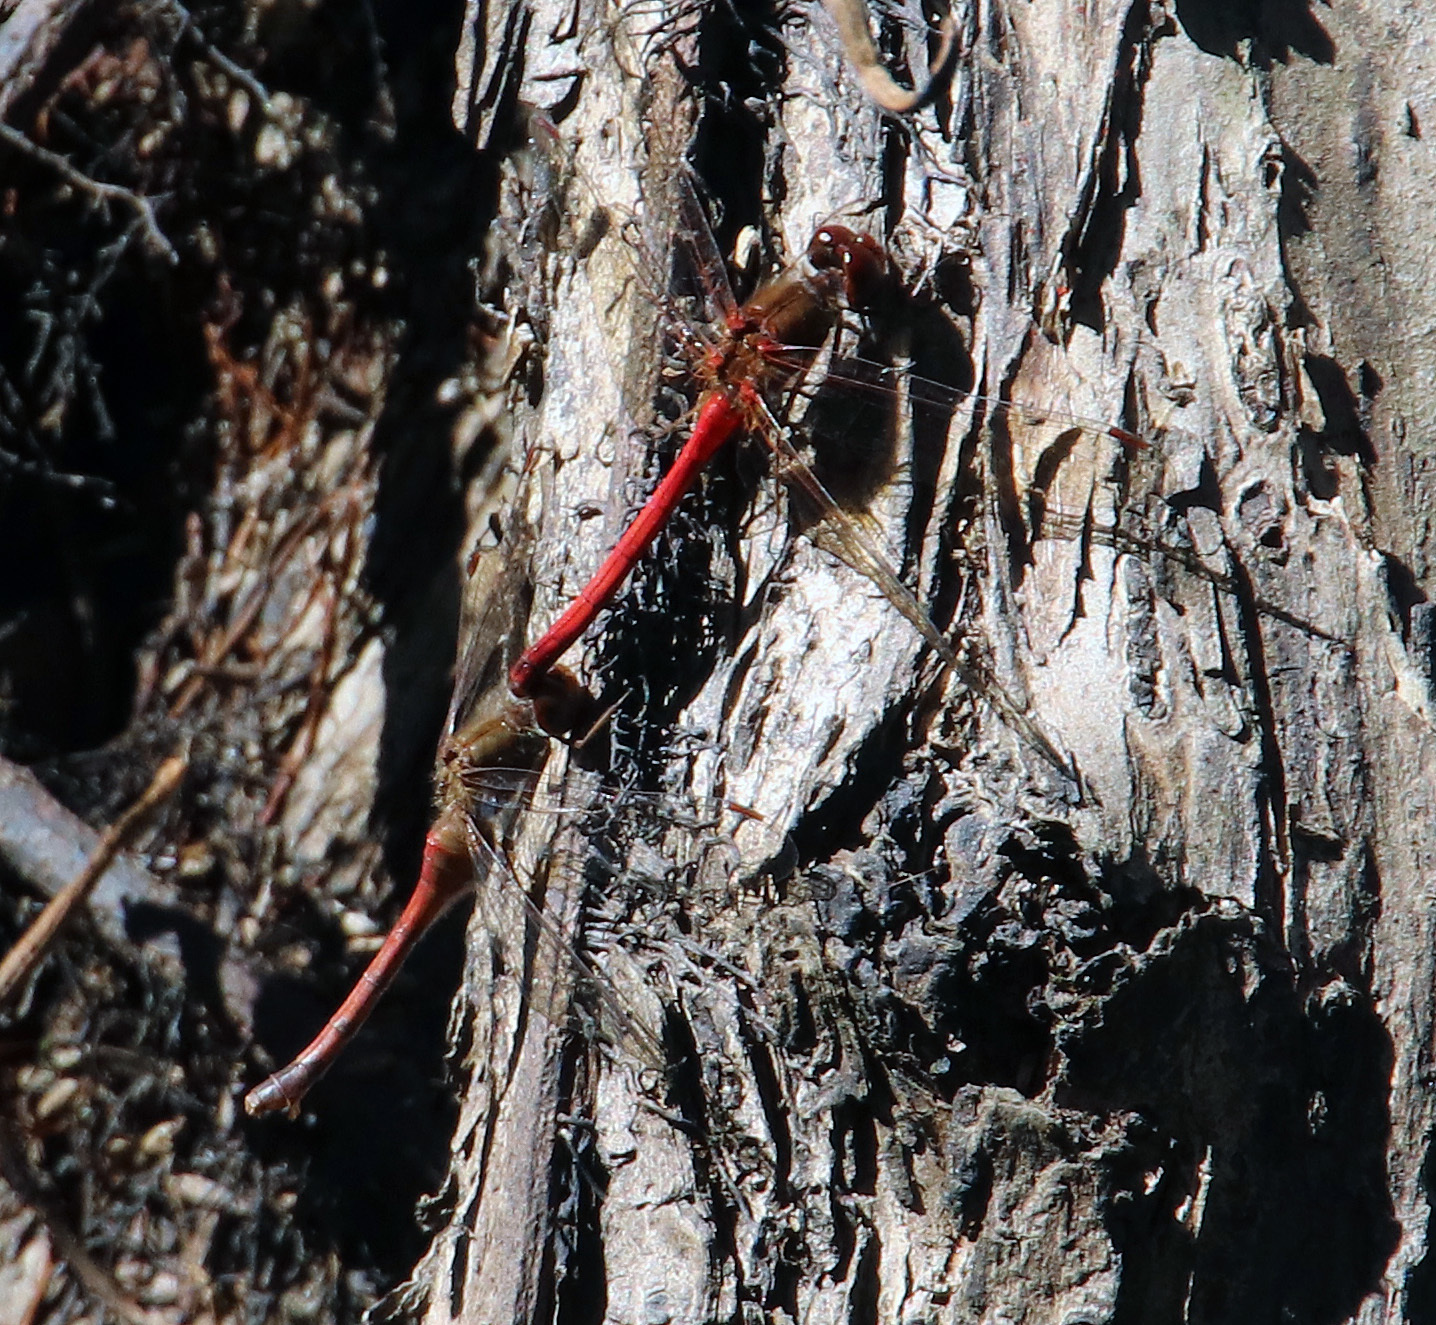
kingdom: Animalia
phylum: Arthropoda
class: Insecta
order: Odonata
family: Libellulidae
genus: Sympetrum
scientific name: Sympetrum vicinum
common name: Autumn meadowhawk
